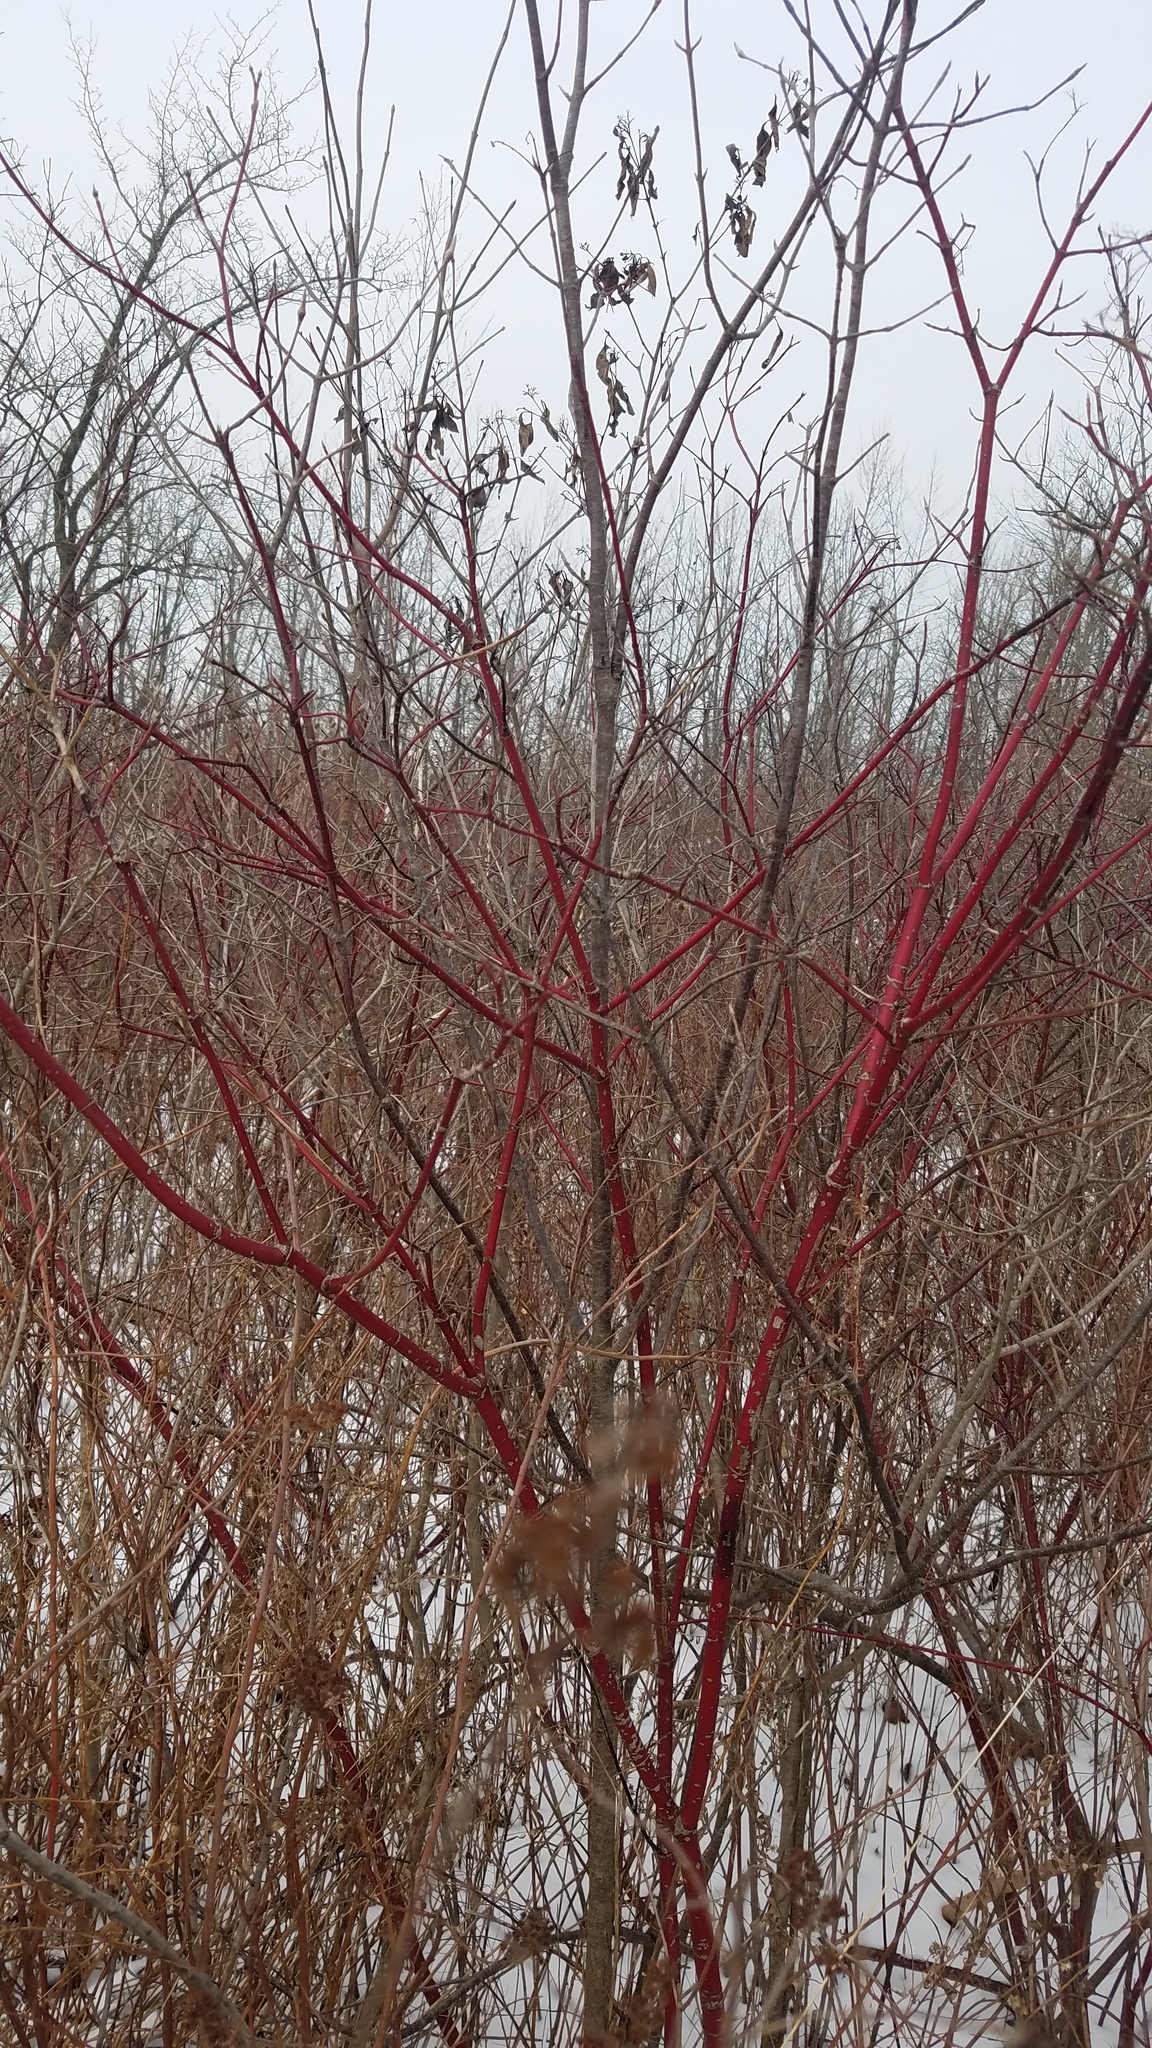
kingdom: Plantae
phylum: Tracheophyta
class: Magnoliopsida
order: Cornales
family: Cornaceae
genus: Cornus
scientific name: Cornus sericea
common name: Red-osier dogwood
